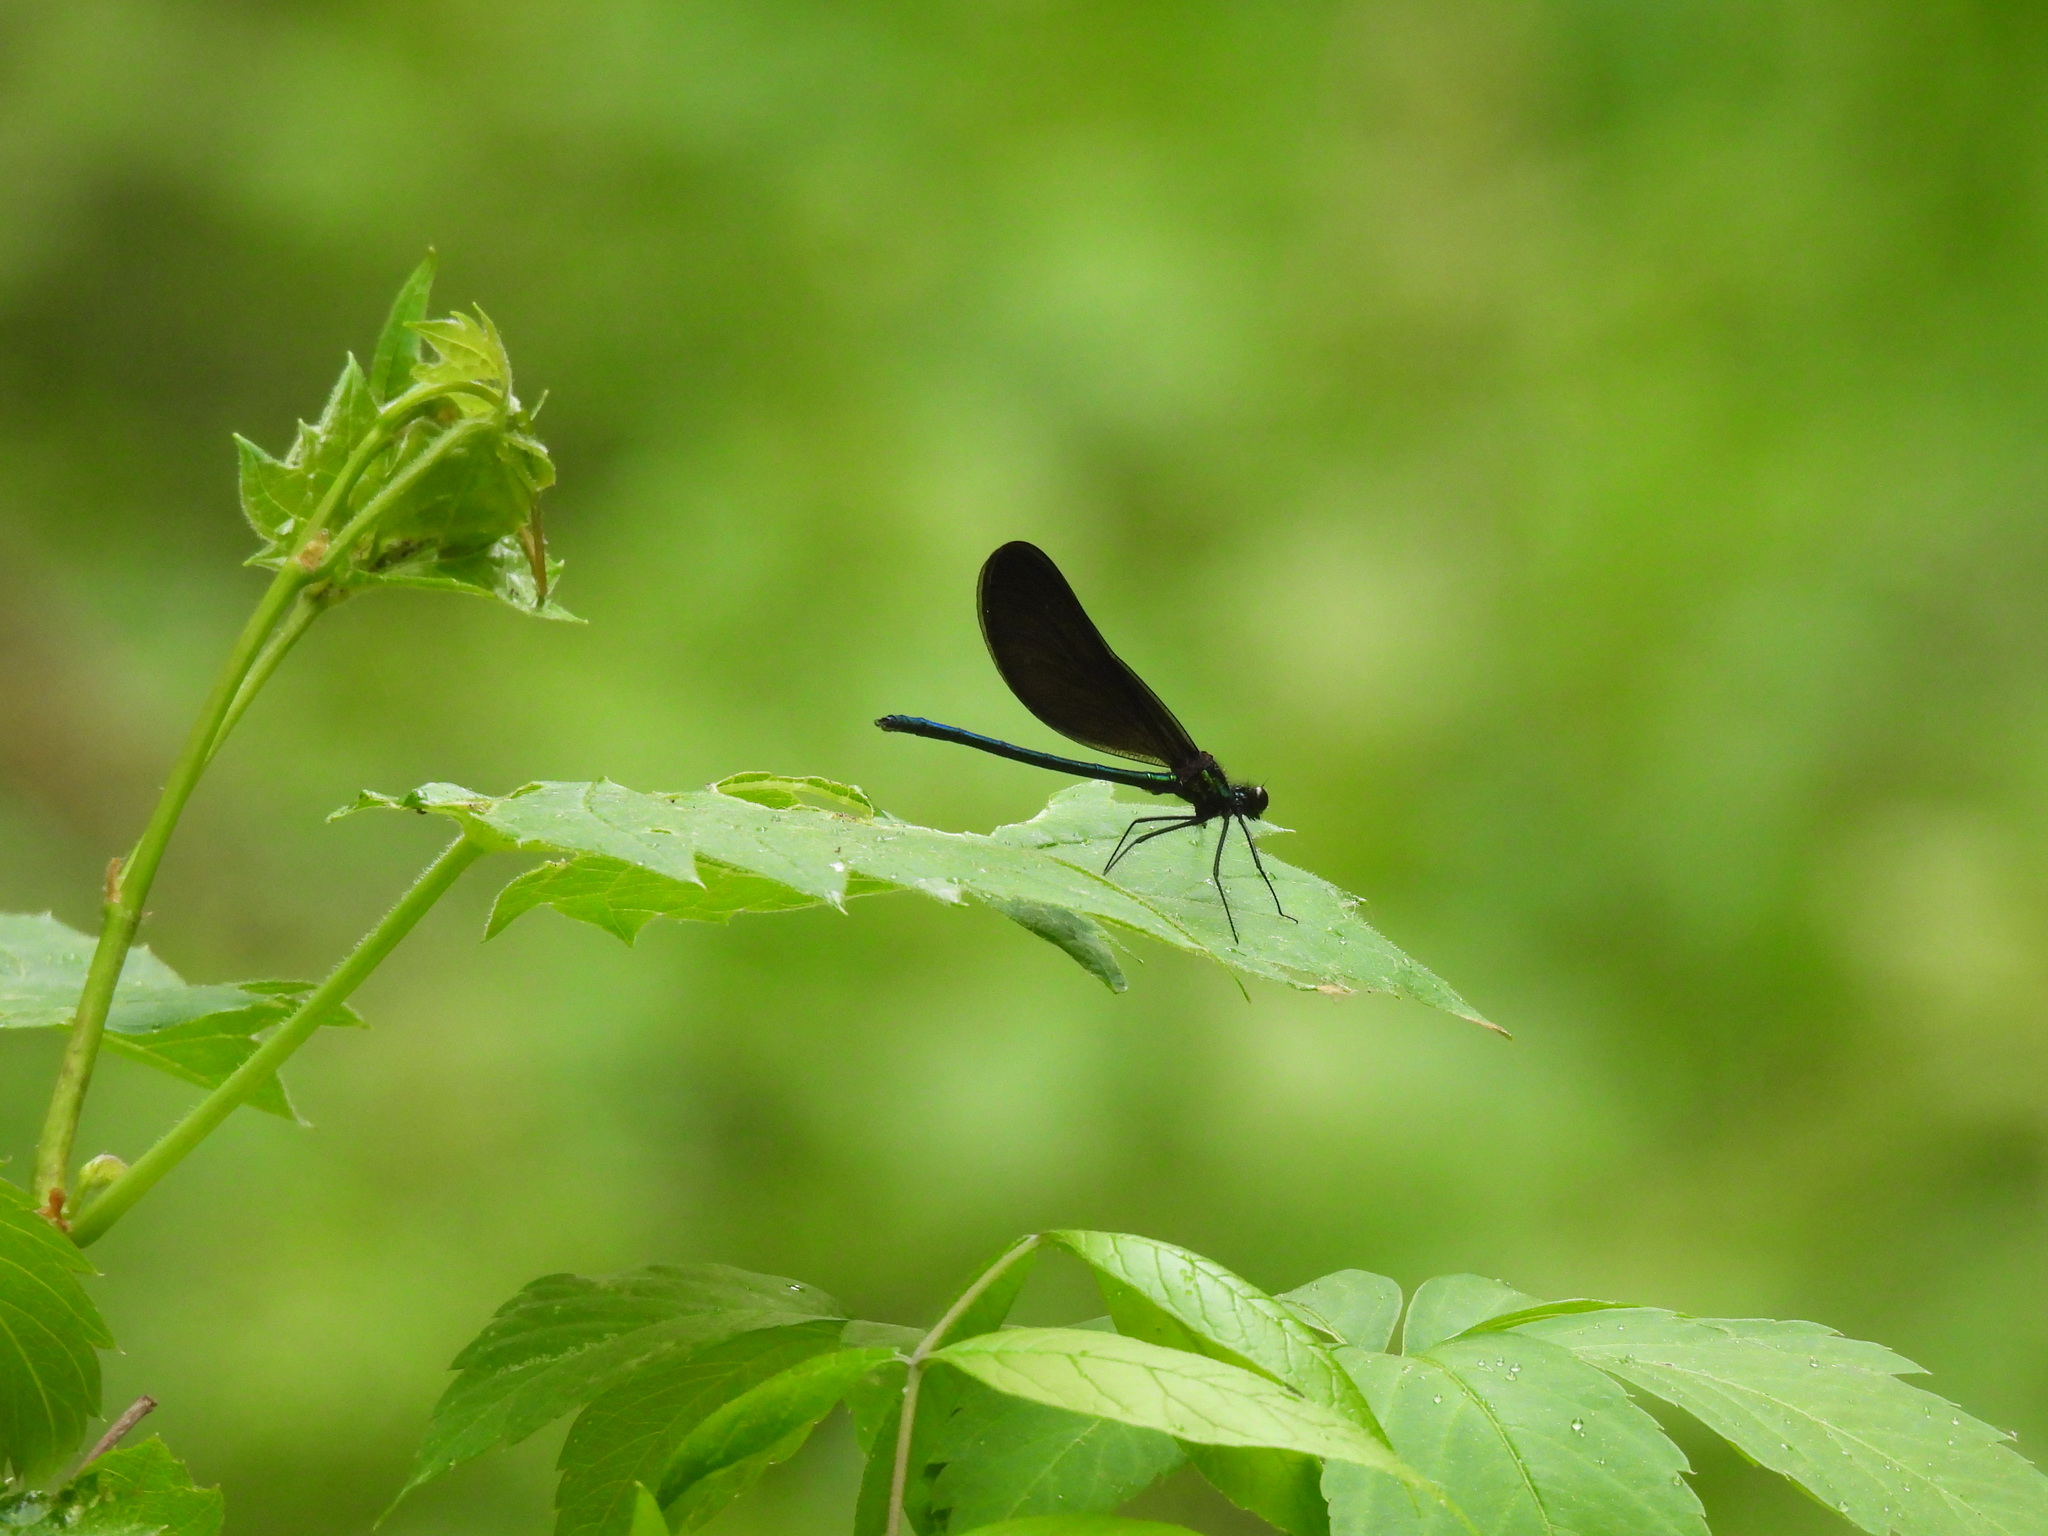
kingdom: Animalia
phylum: Arthropoda
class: Insecta
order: Odonata
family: Calopterygidae
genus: Calopteryx
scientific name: Calopteryx maculata
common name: Ebony jewelwing
